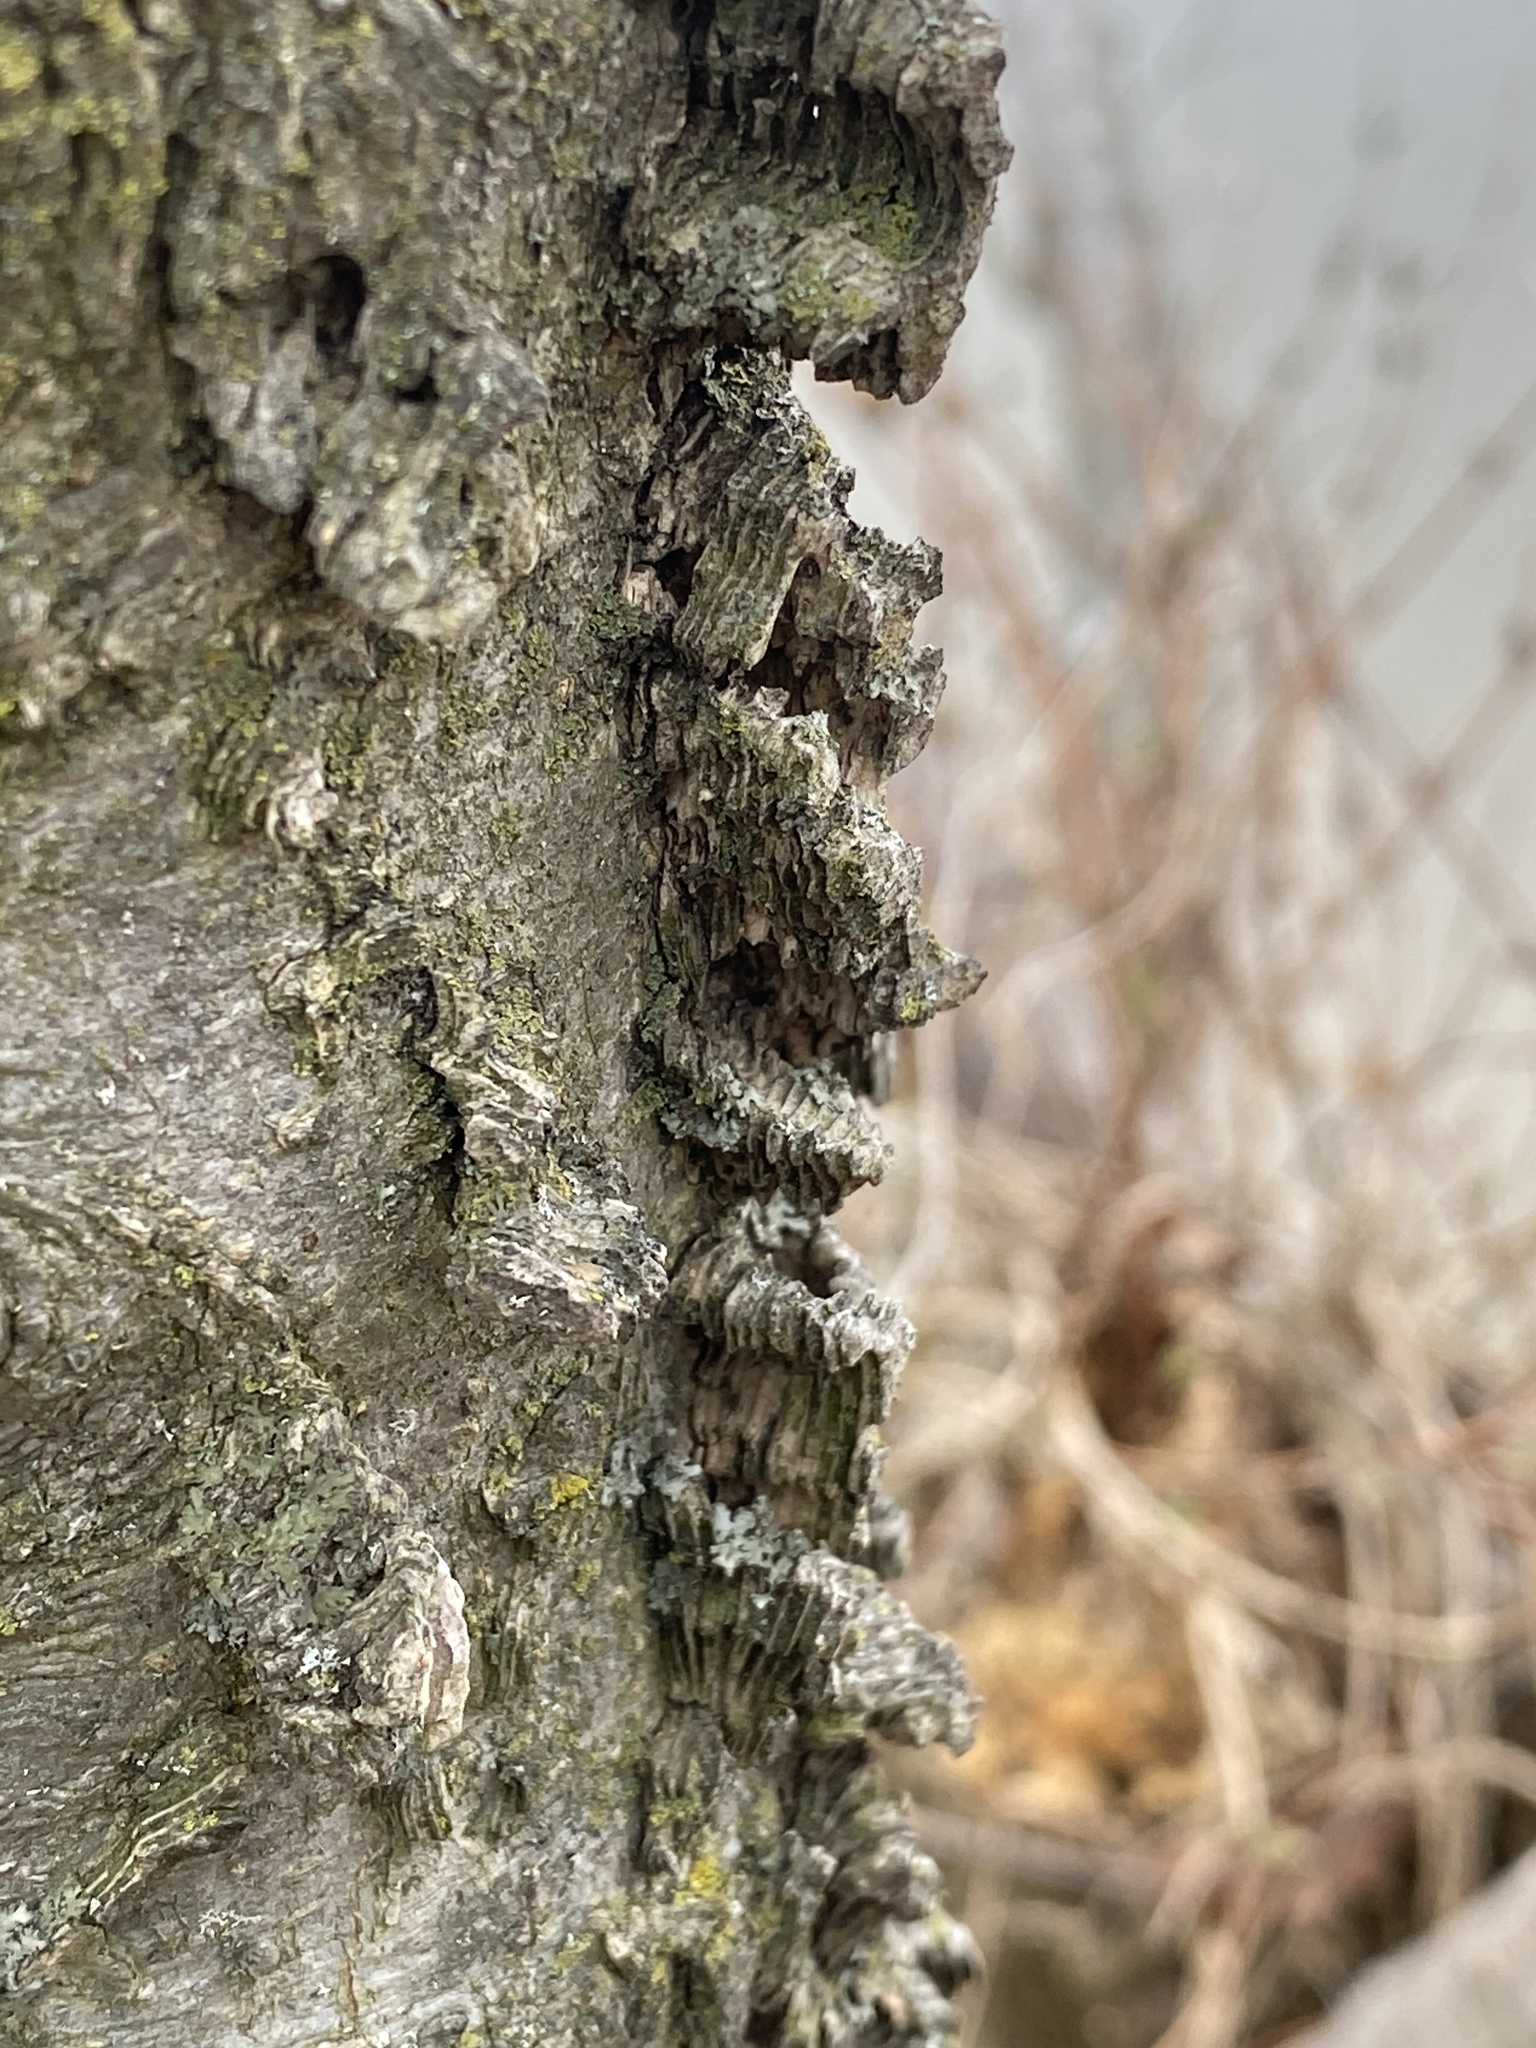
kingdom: Plantae
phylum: Tracheophyta
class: Magnoliopsida
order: Rosales
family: Cannabaceae
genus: Celtis
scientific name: Celtis occidentalis
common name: Common hackberry
